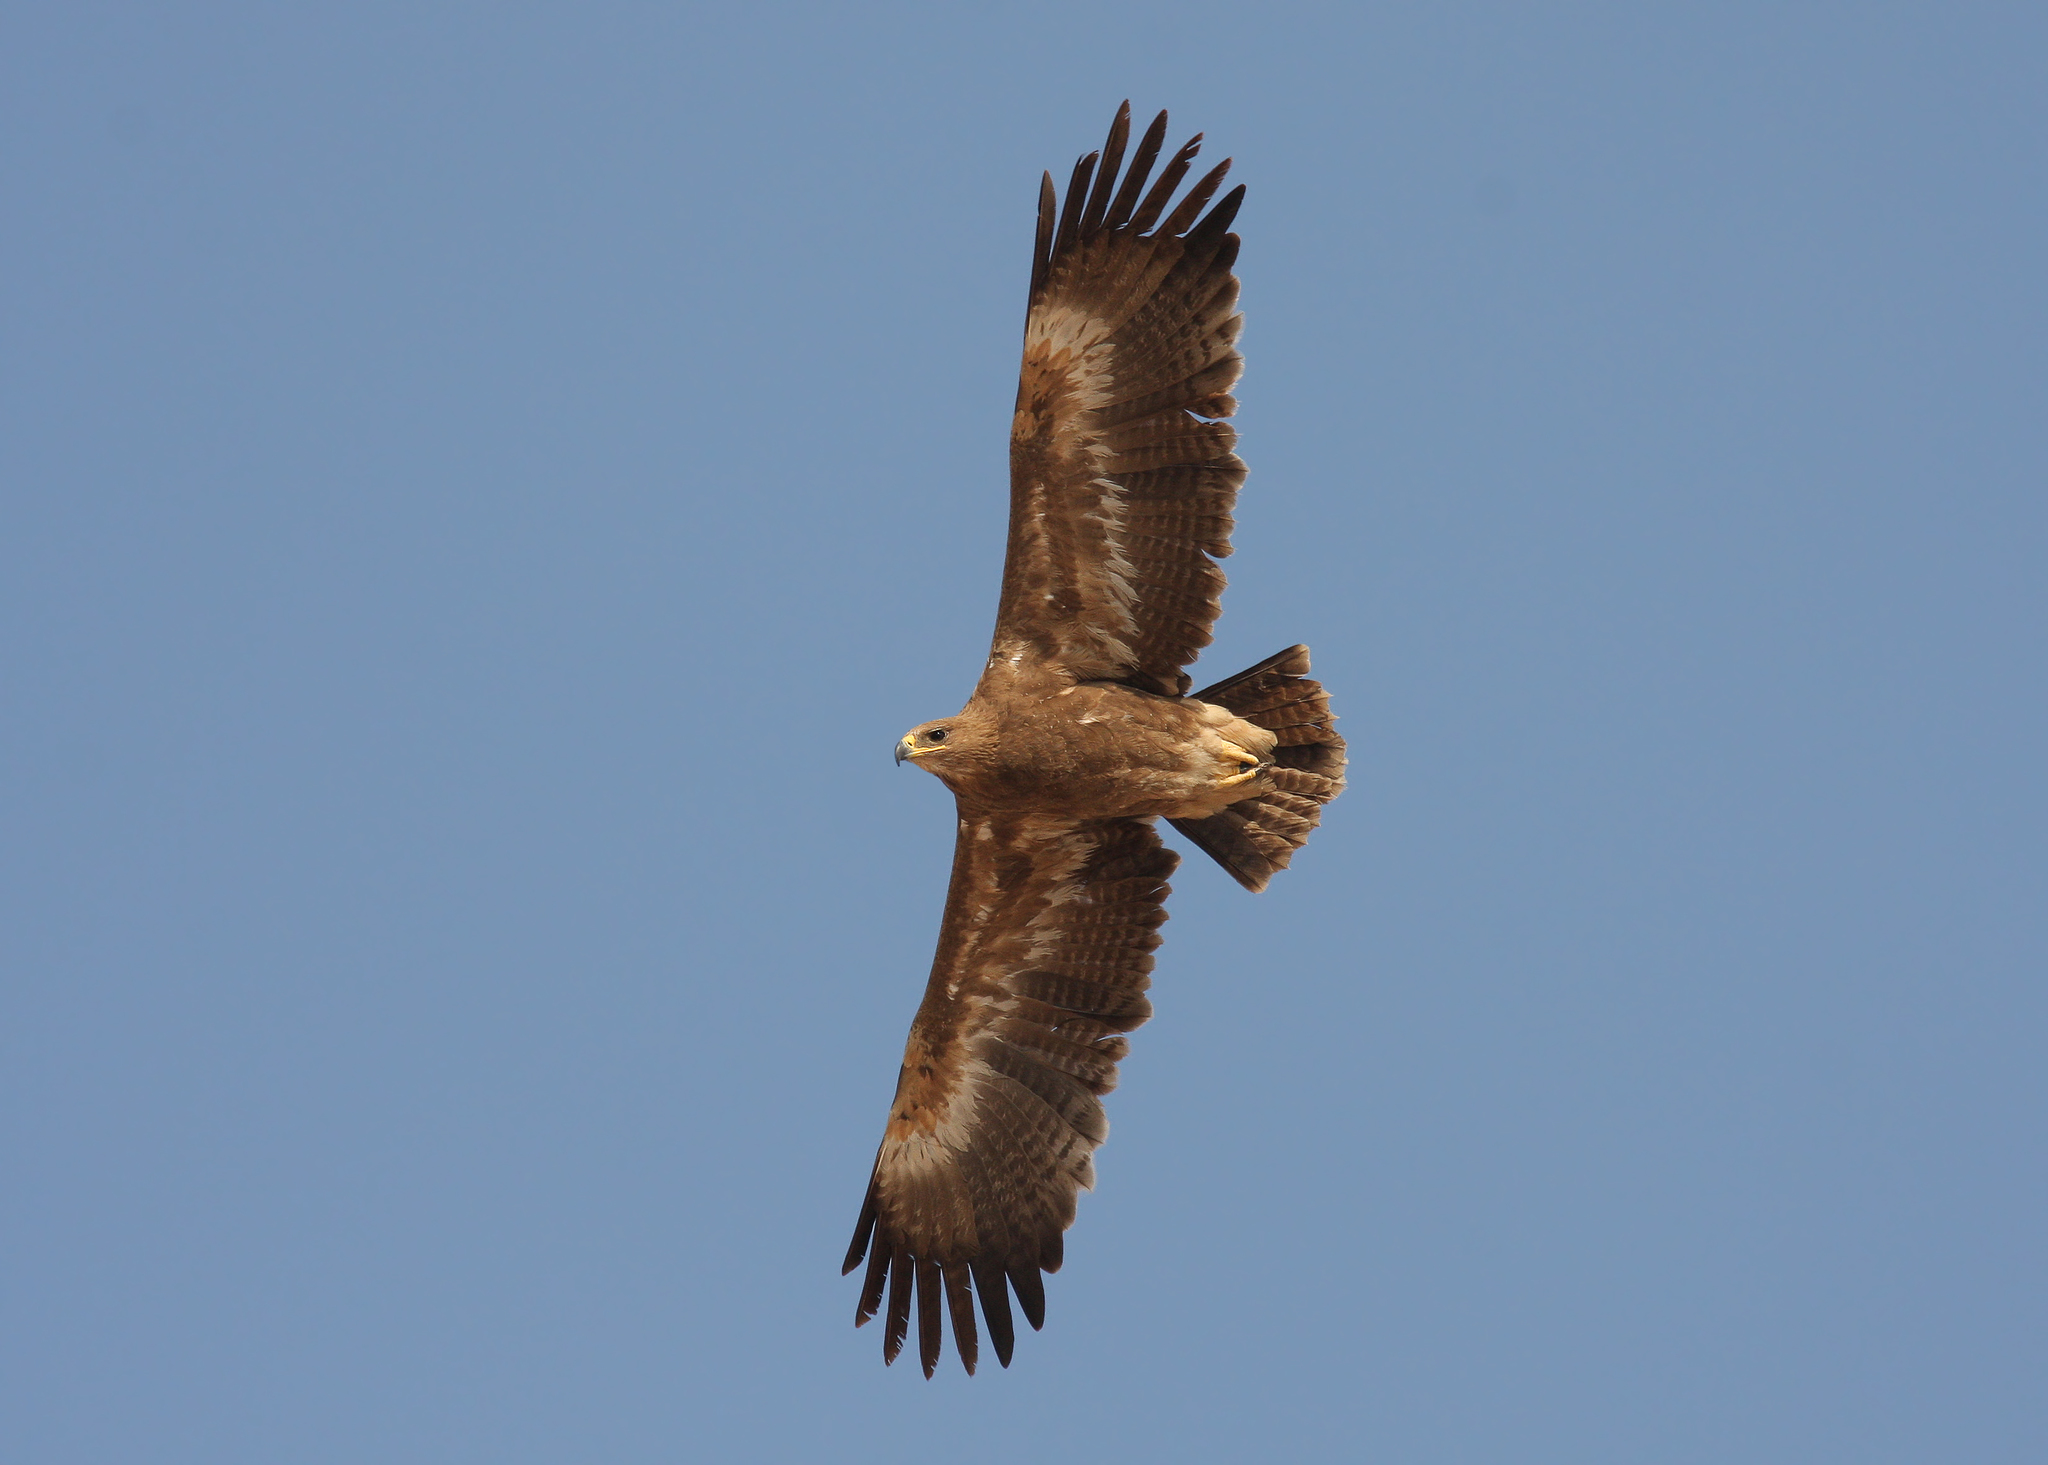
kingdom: Animalia
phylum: Chordata
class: Aves
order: Accipitriformes
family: Accipitridae
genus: Aquila
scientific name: Aquila nipalensis
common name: Steppe eagle
